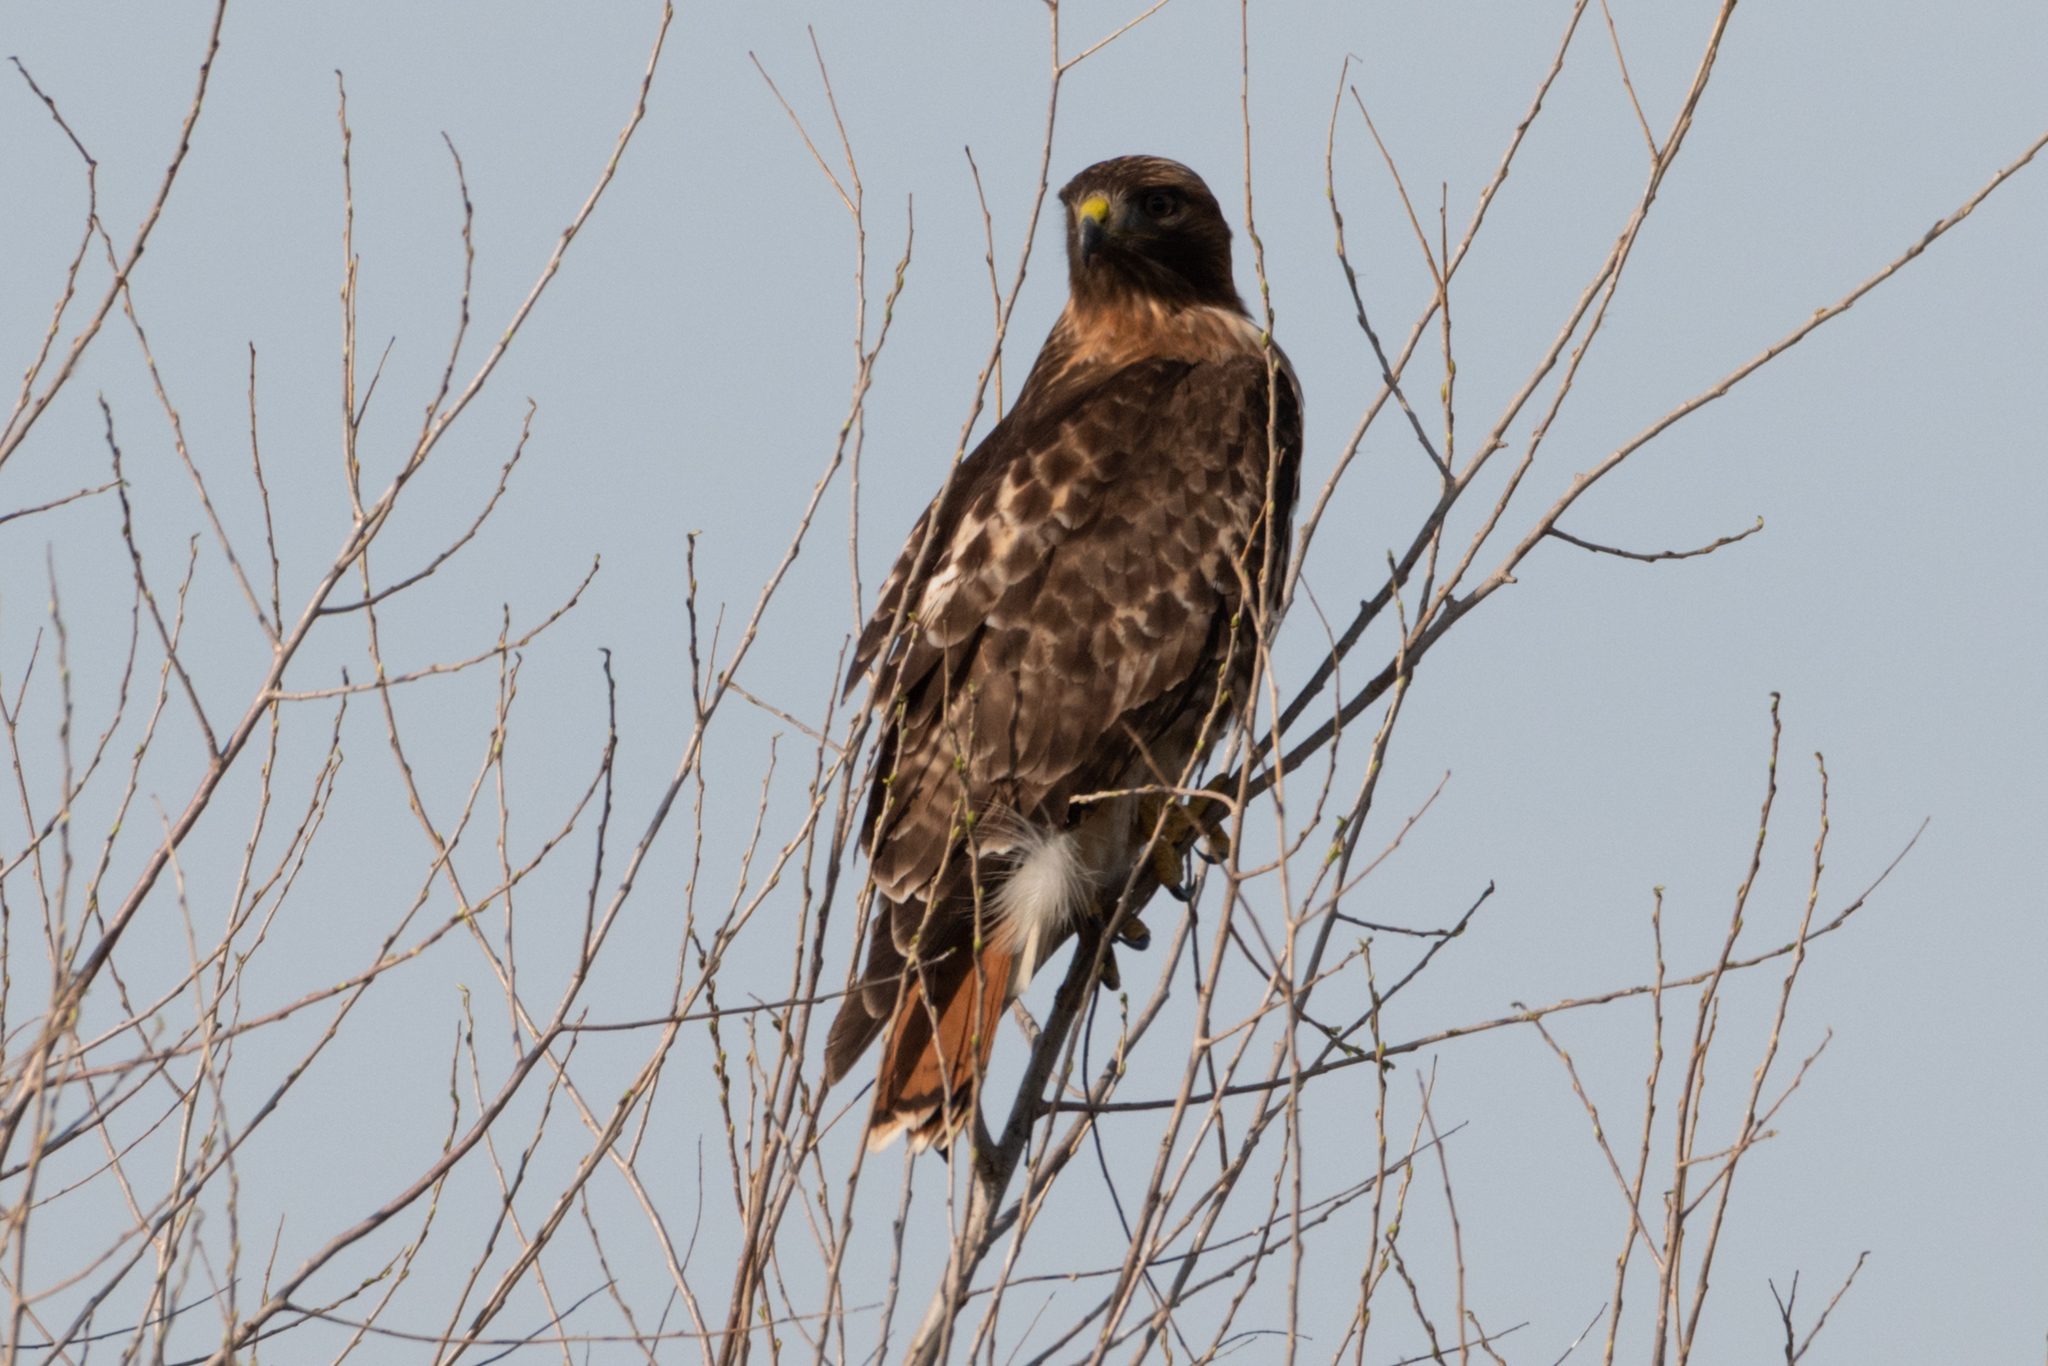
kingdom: Animalia
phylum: Chordata
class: Aves
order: Accipitriformes
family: Accipitridae
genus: Buteo
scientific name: Buteo jamaicensis
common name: Red-tailed hawk
